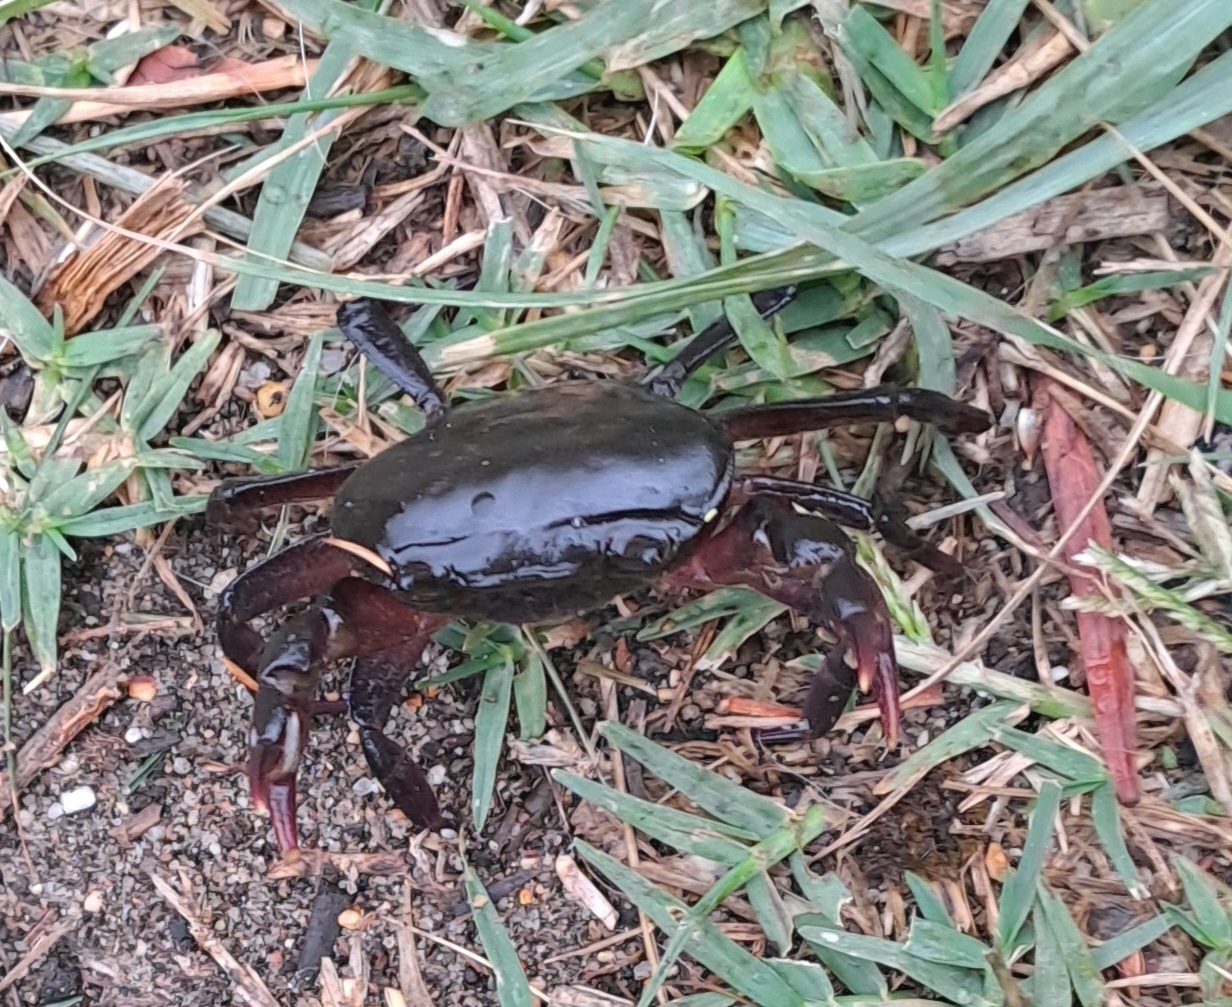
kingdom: Animalia
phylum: Arthropoda
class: Malacostraca
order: Decapoda
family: Potamonautidae
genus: Potamonautes
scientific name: Potamonautes brincki
